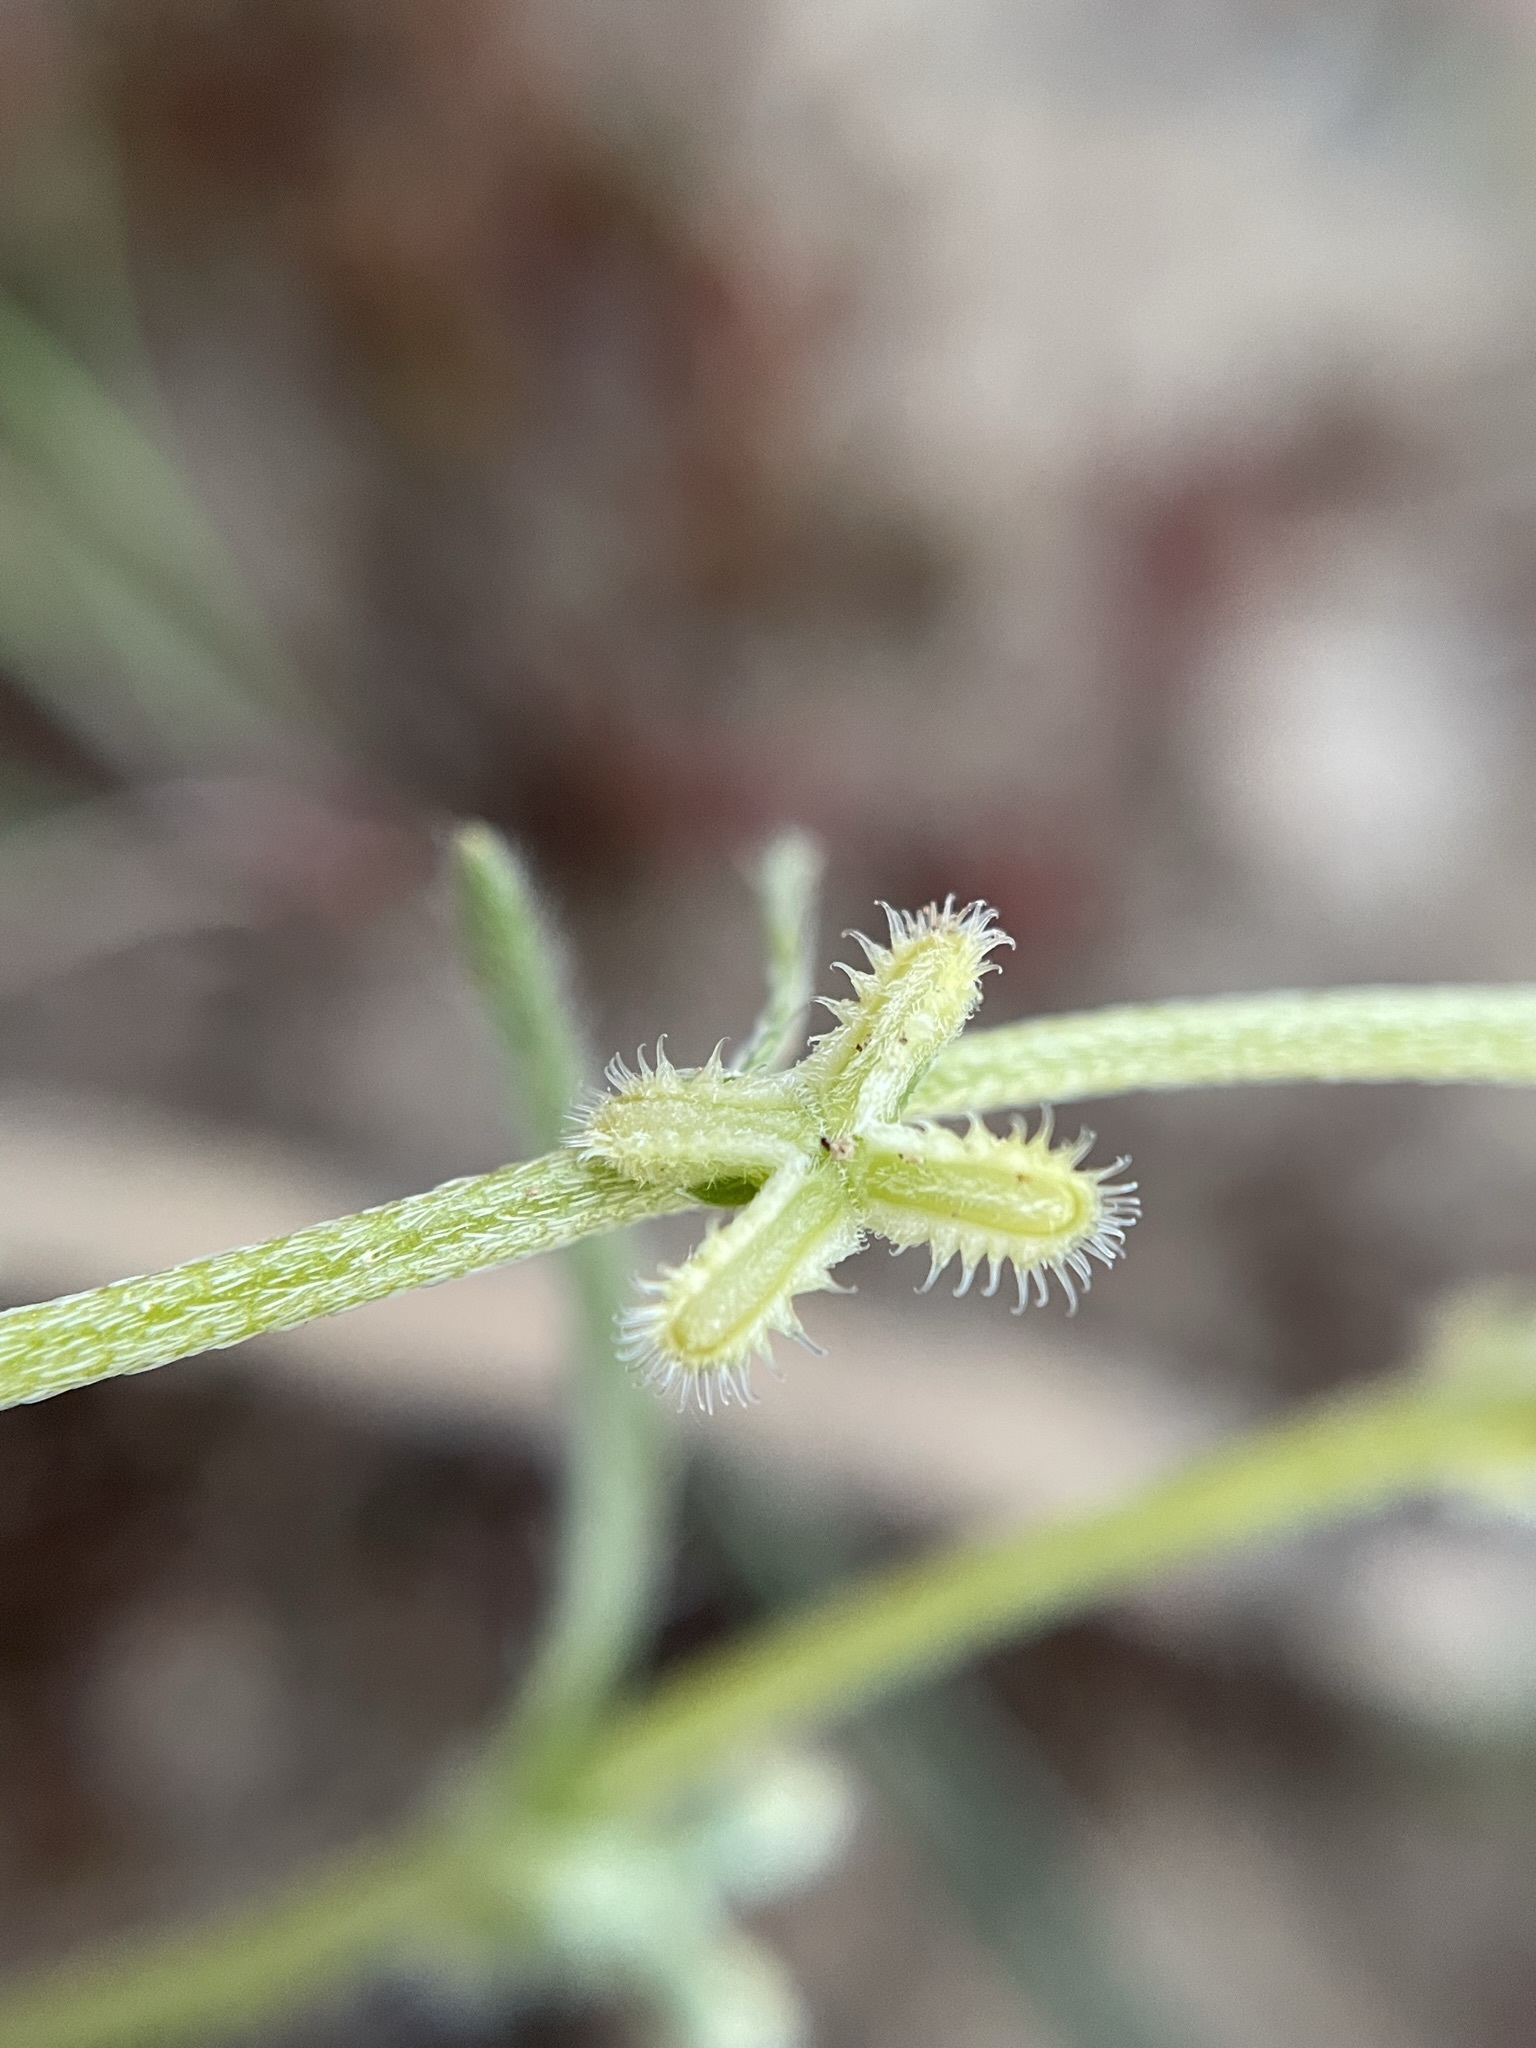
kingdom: Plantae
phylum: Tracheophyta
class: Magnoliopsida
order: Boraginales
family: Boraginaceae
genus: Pectocarya
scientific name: Pectocarya linearis
